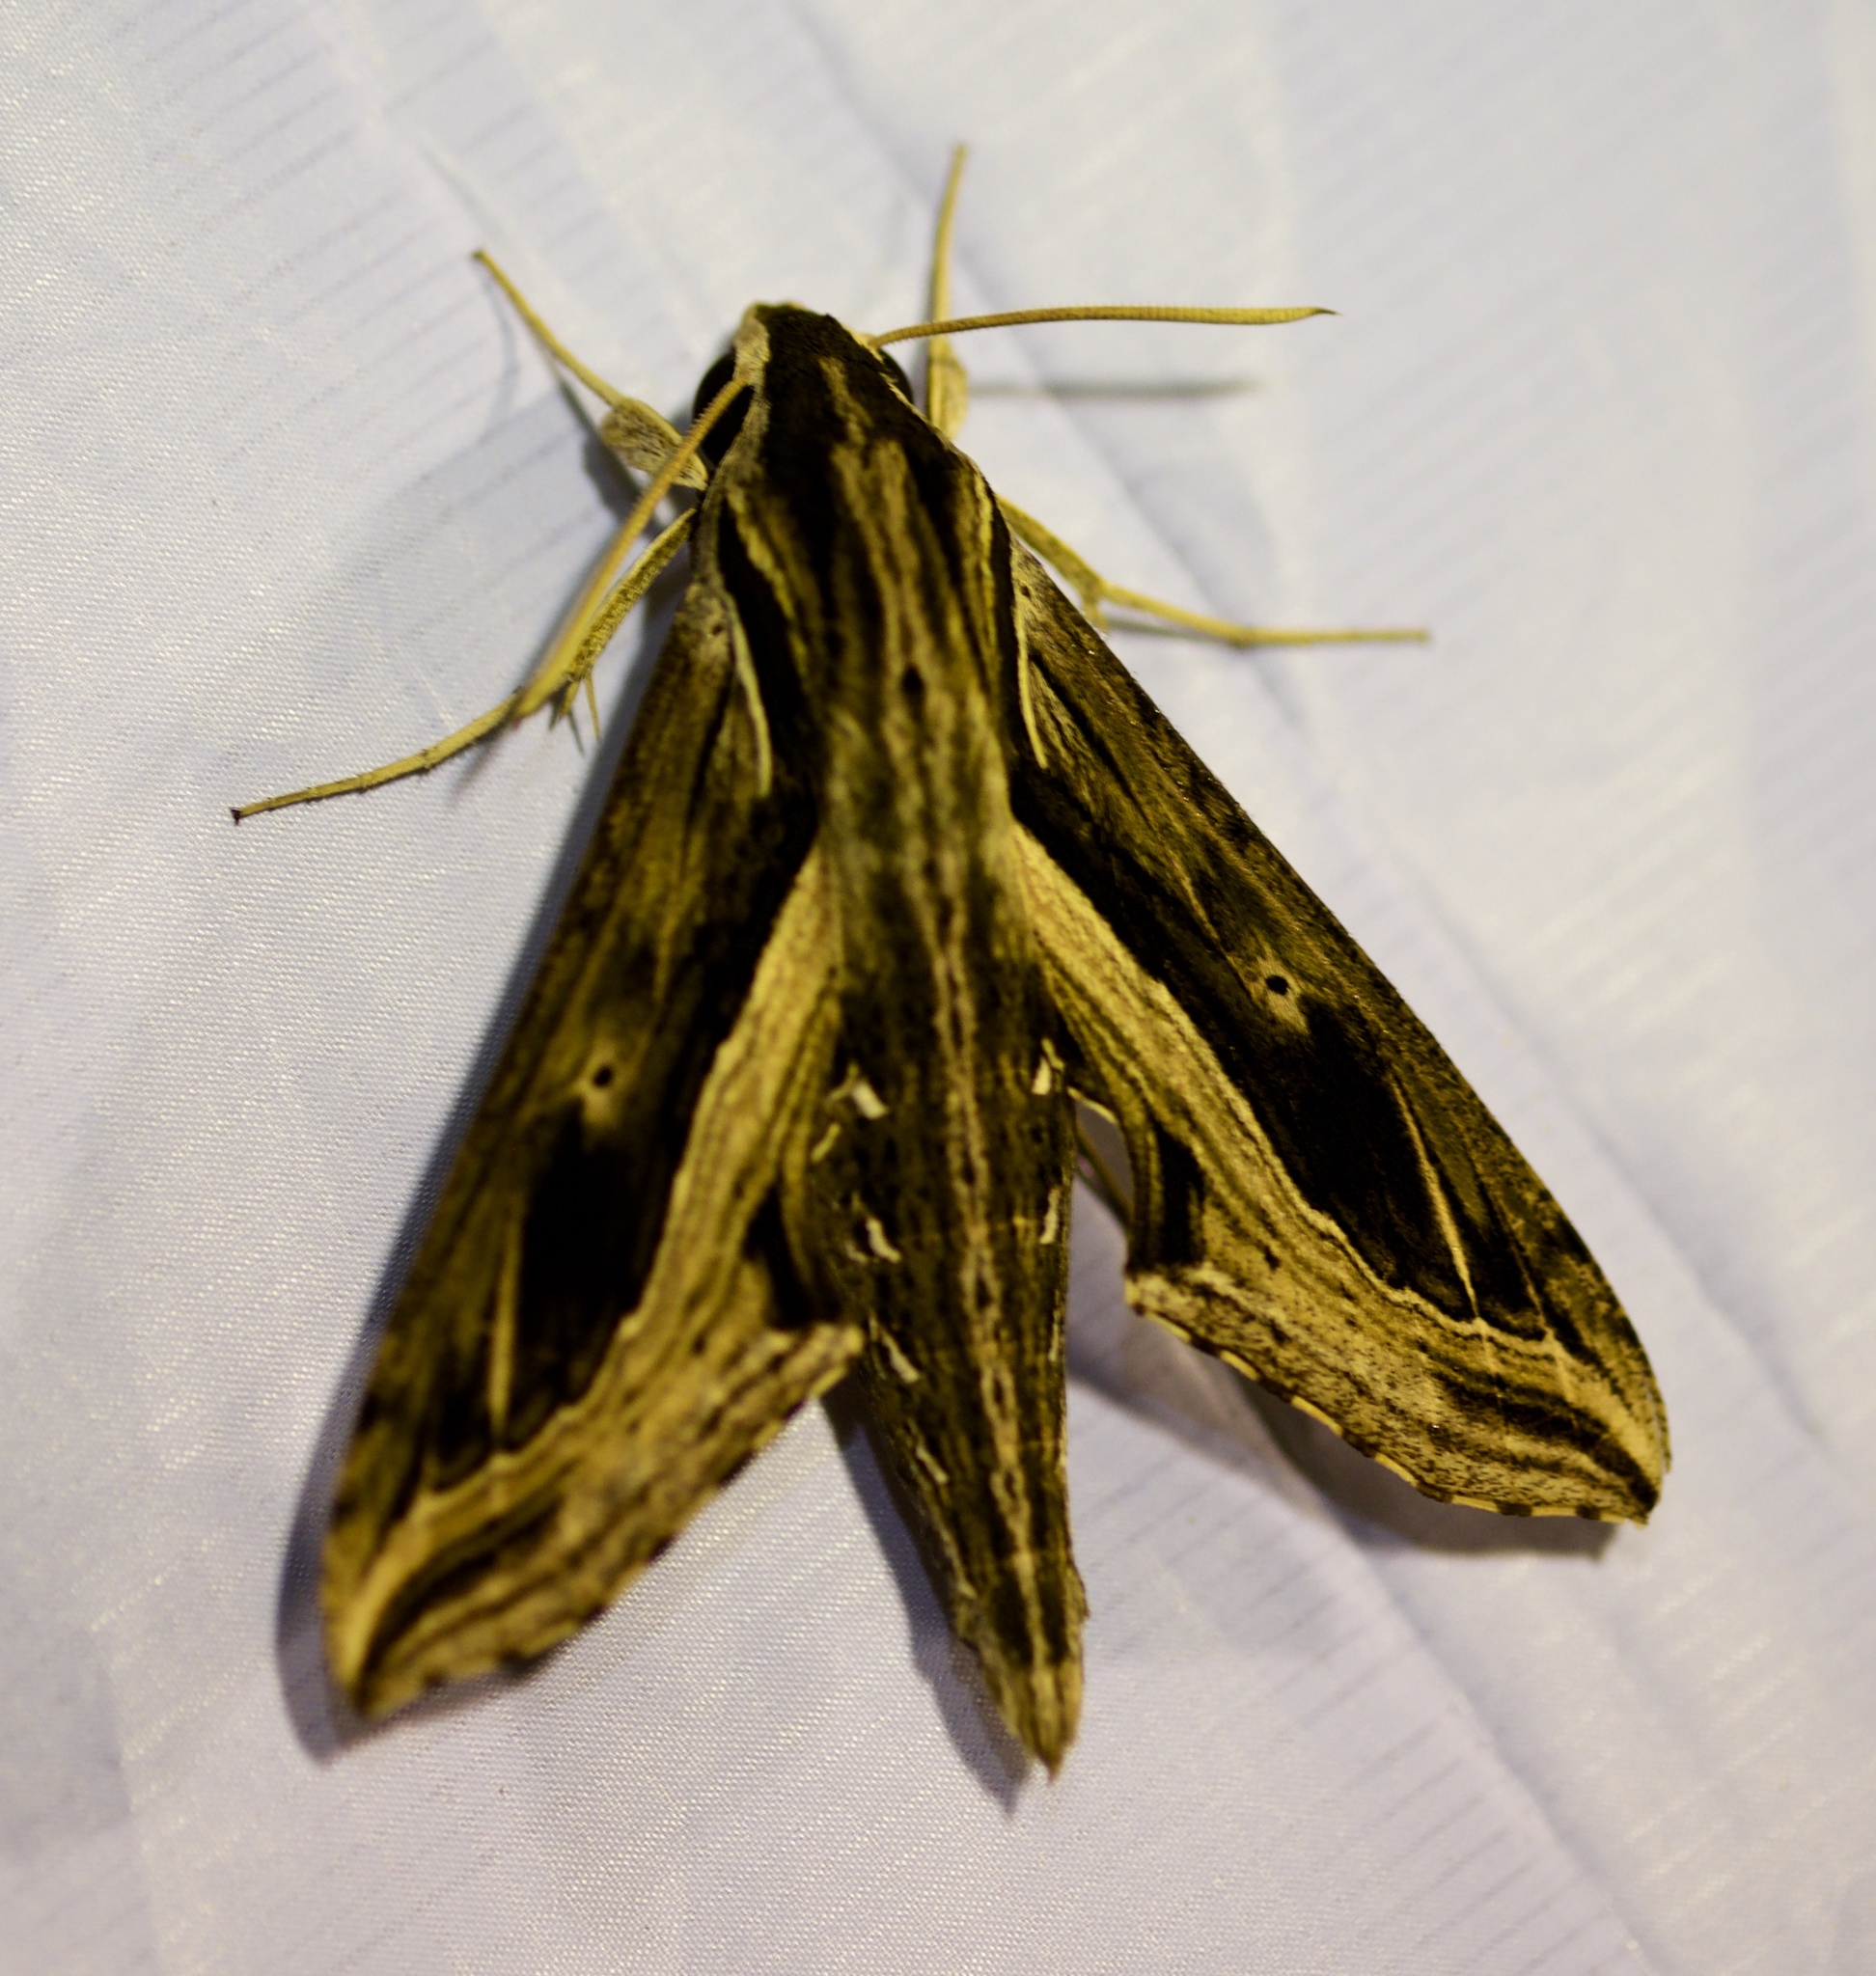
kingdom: Animalia
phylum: Arthropoda
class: Insecta
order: Lepidoptera
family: Sphingidae
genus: Hippotion
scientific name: Hippotion velox
